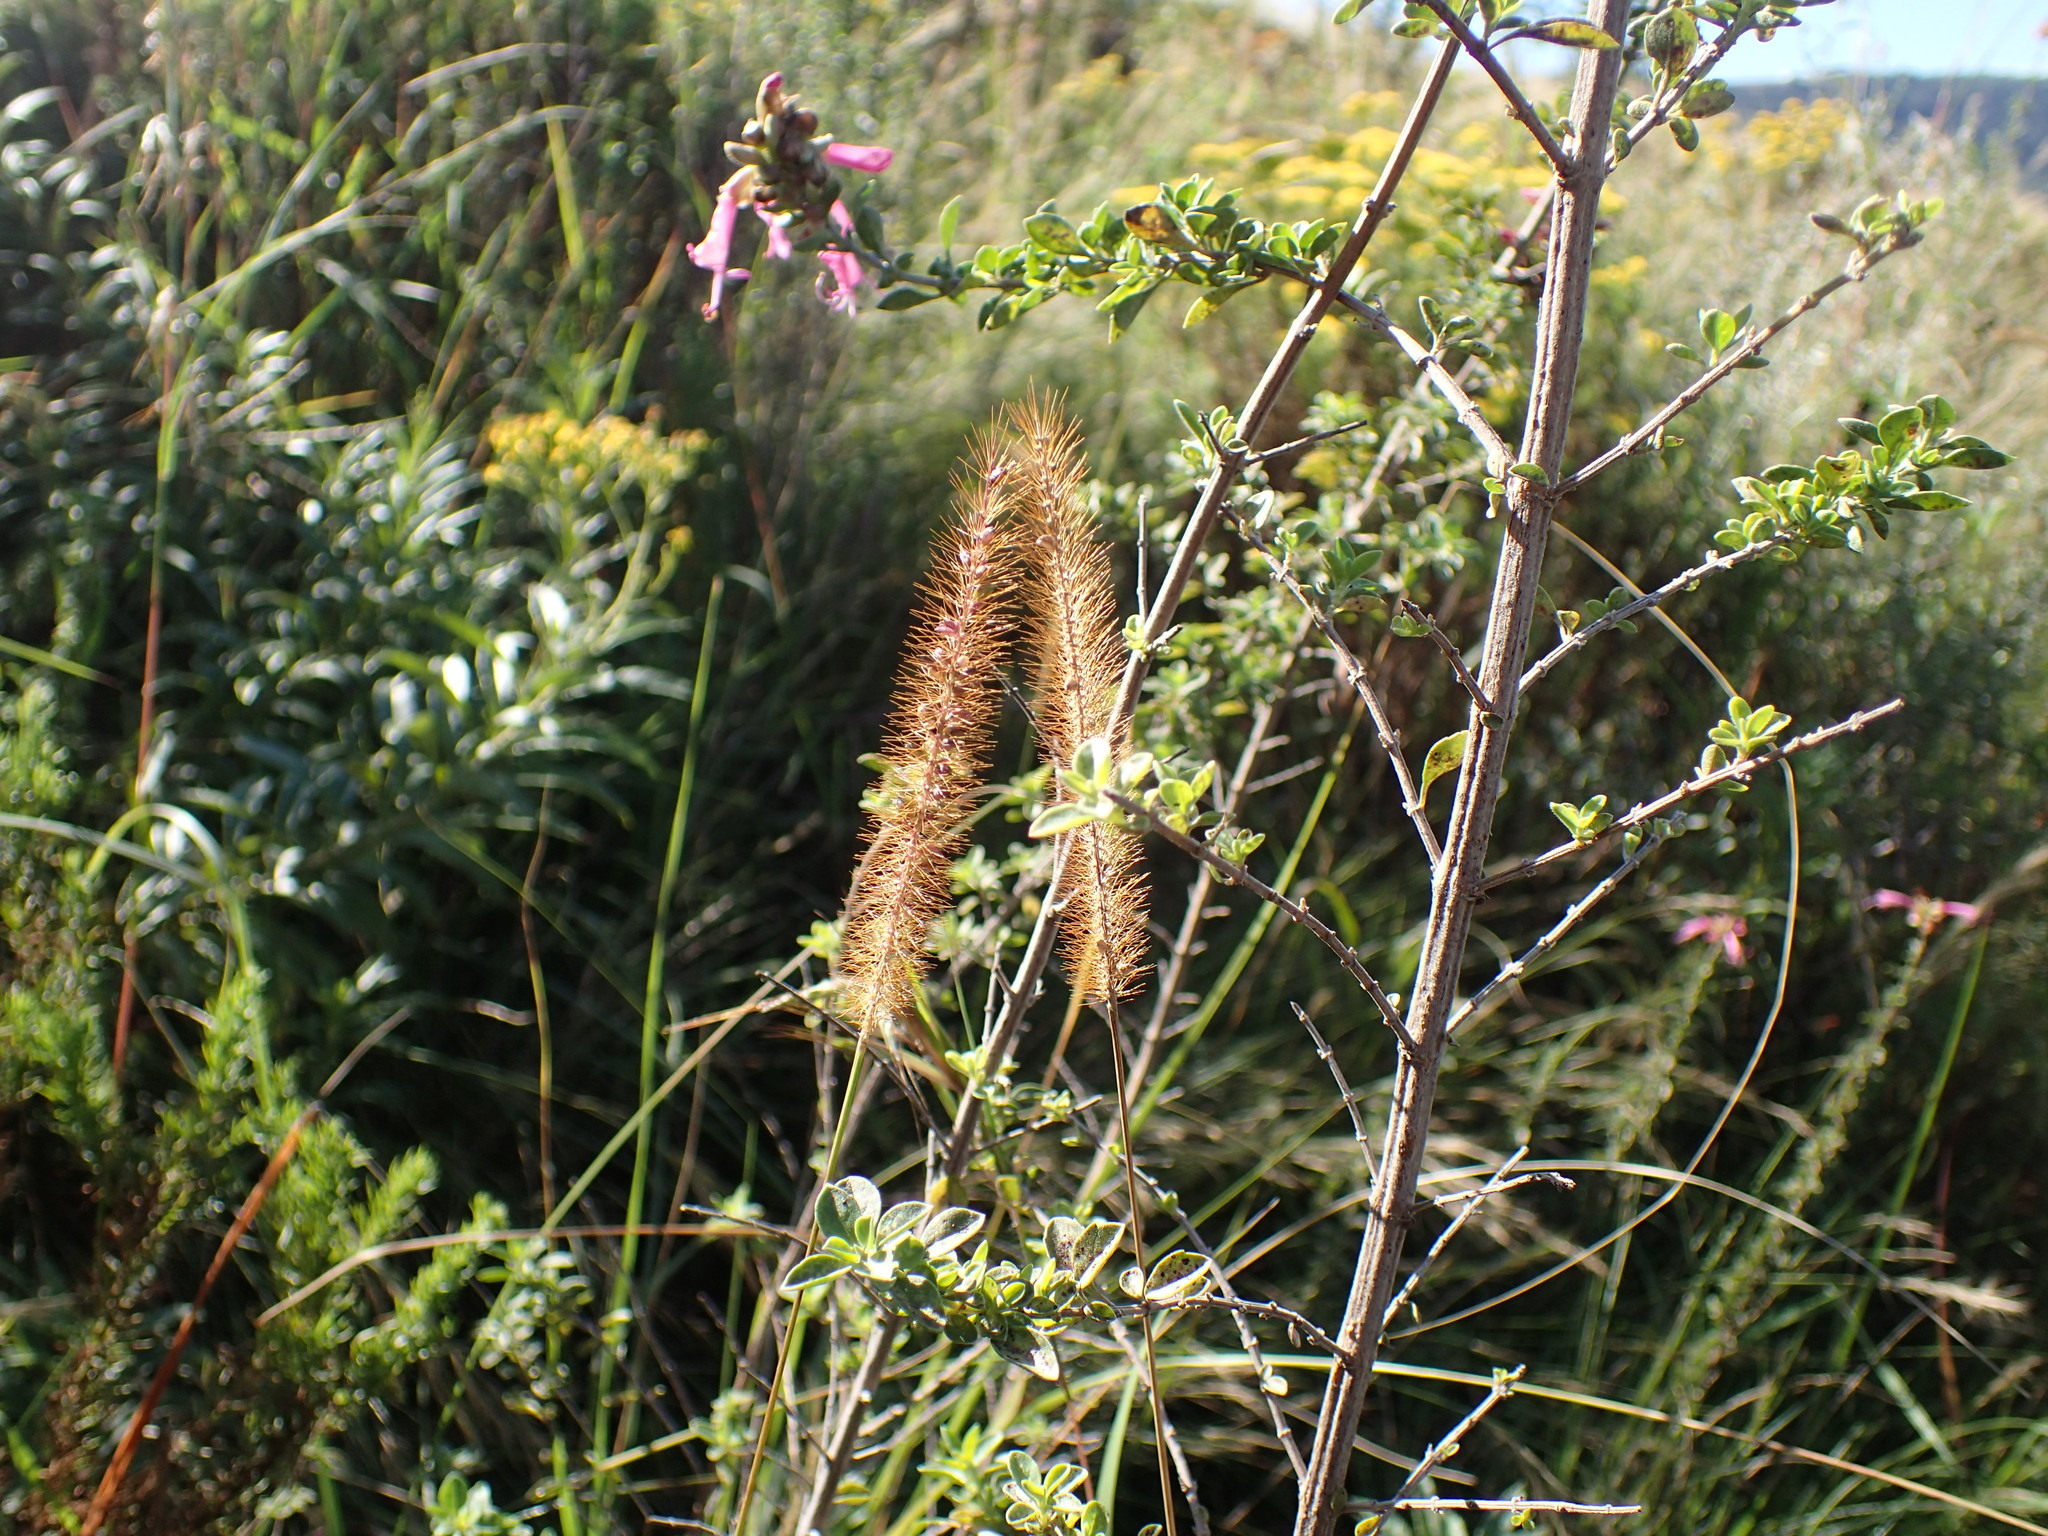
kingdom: Plantae
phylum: Tracheophyta
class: Liliopsida
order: Poales
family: Poaceae
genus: Setaria
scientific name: Setaria sphacelata
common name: African bristlegrass
